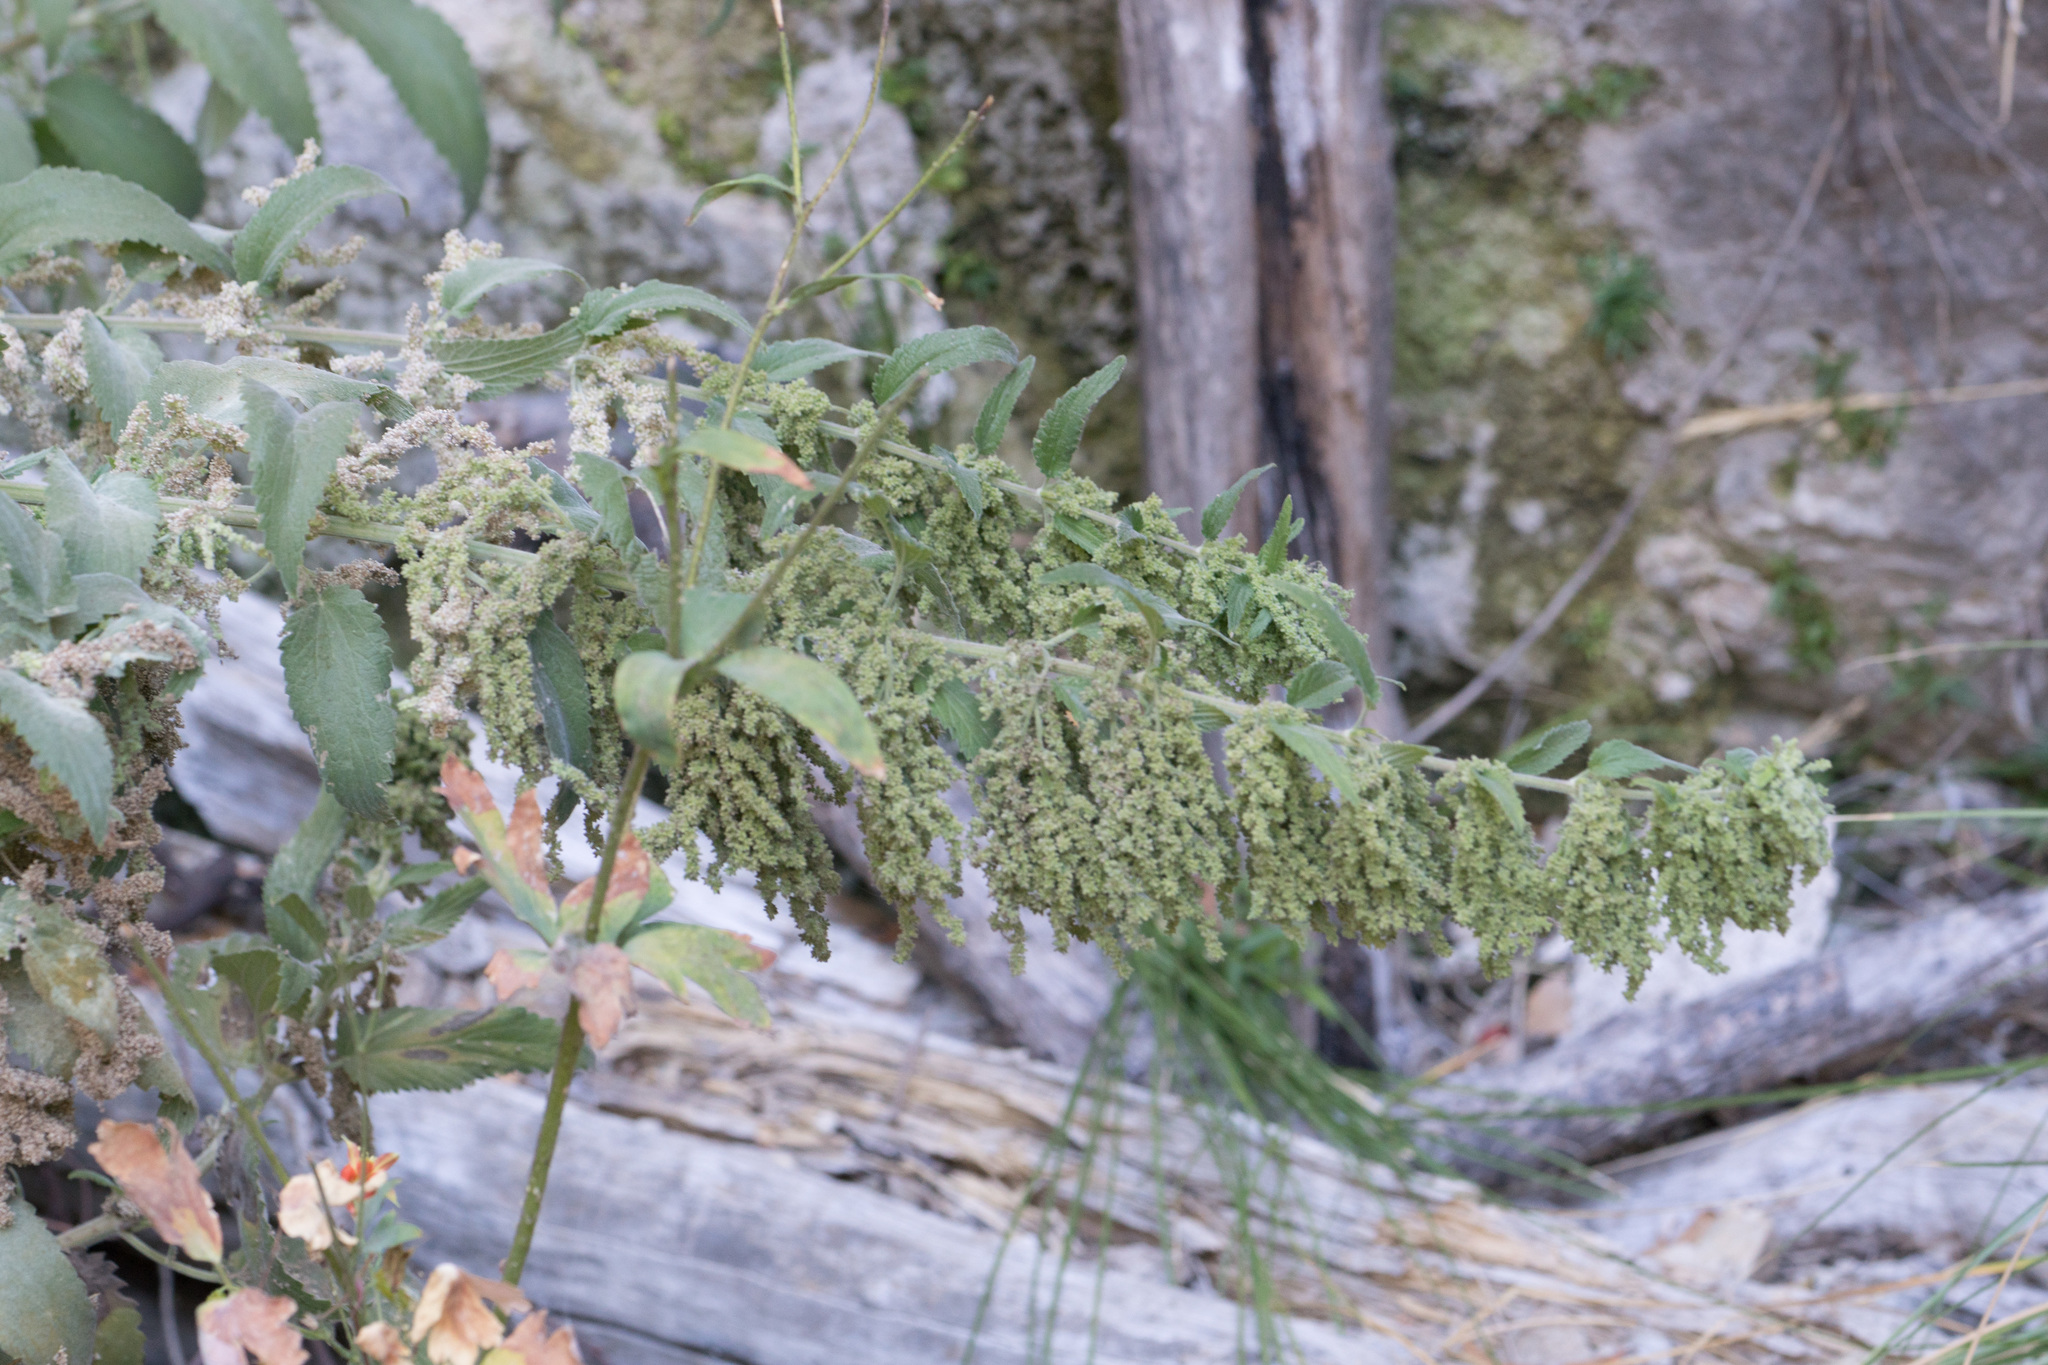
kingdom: Plantae
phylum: Tracheophyta
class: Magnoliopsida
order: Rosales
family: Urticaceae
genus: Urtica
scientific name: Urtica dioica
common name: Common nettle
